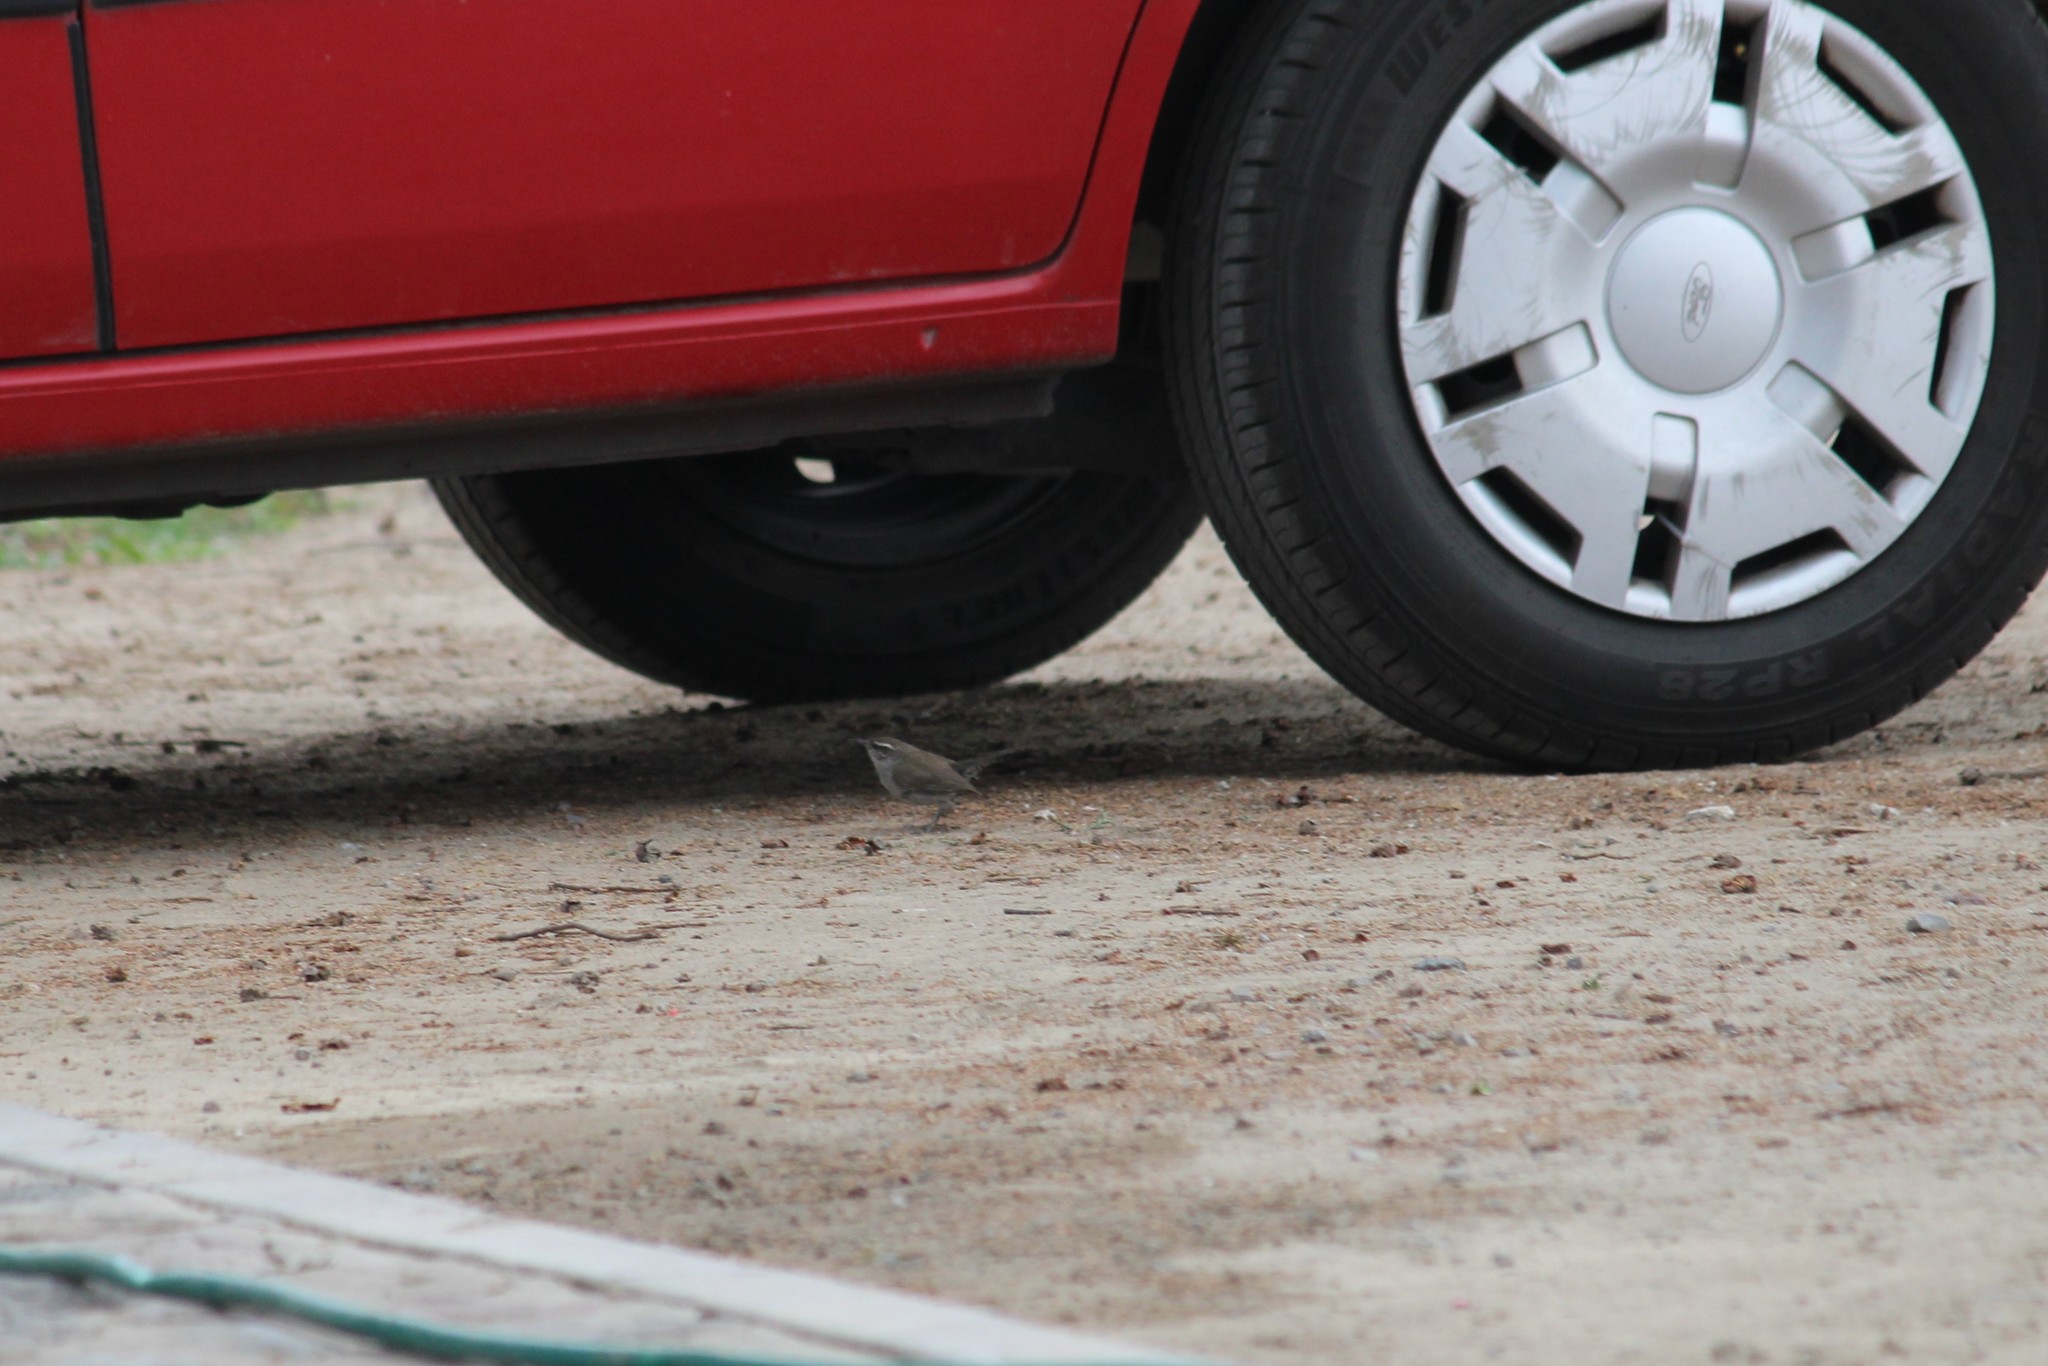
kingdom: Animalia
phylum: Chordata
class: Aves
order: Passeriformes
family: Troglodytidae
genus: Thryomanes
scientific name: Thryomanes bewickii
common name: Bewick's wren
